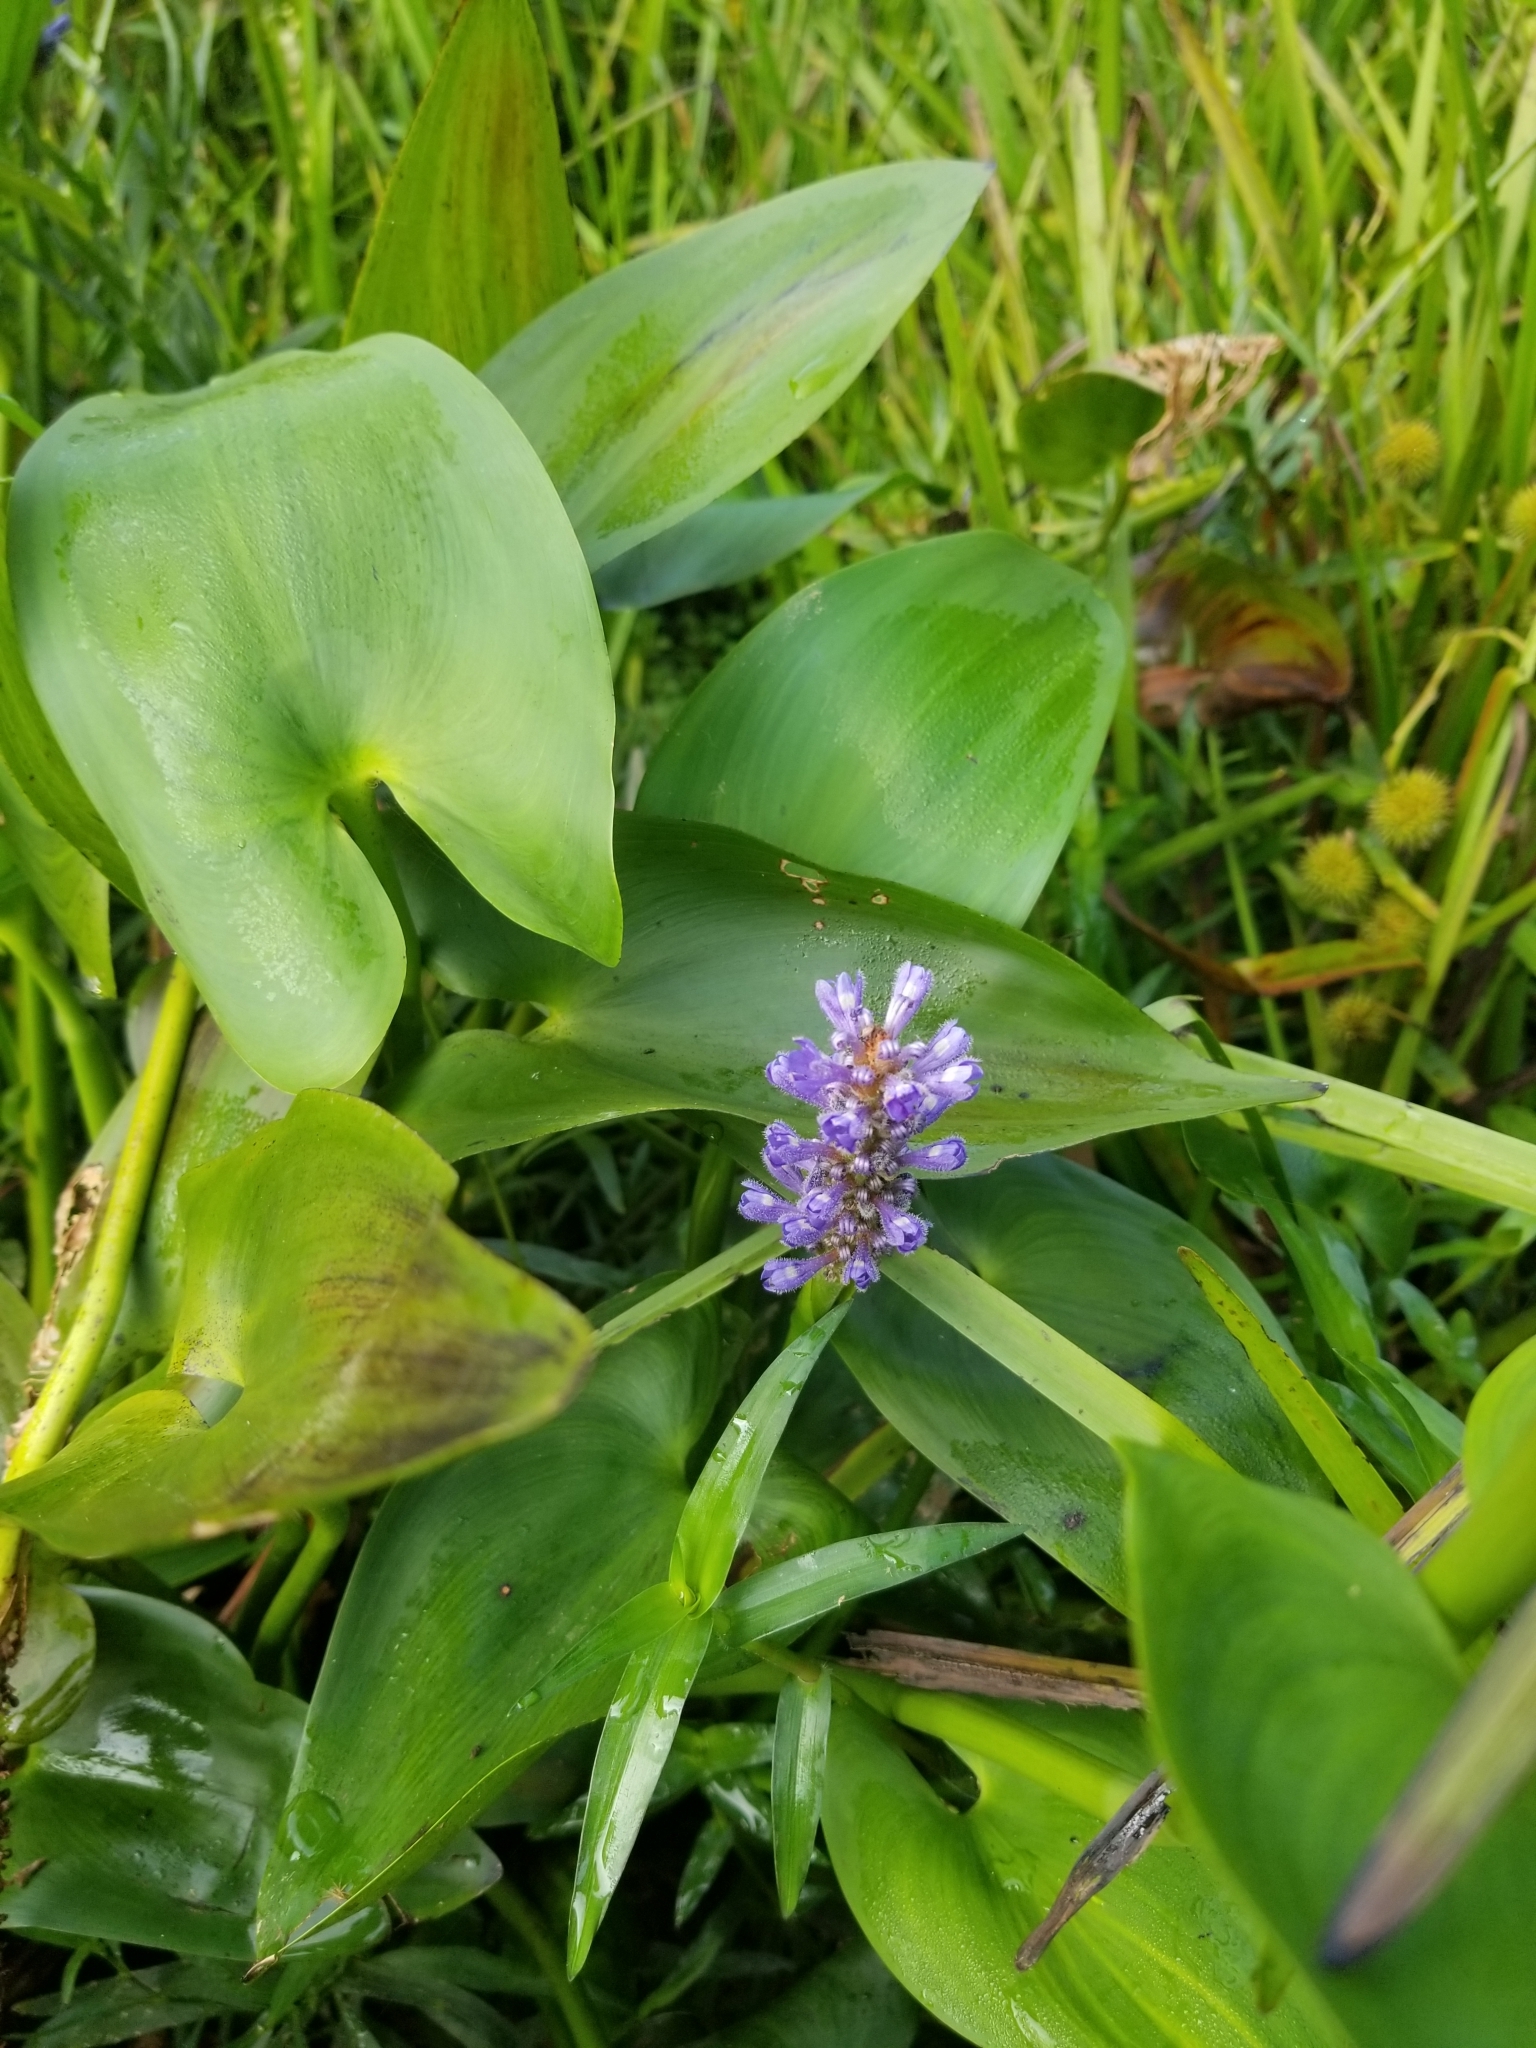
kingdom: Plantae
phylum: Tracheophyta
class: Liliopsida
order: Commelinales
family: Pontederiaceae
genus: Pontederia
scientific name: Pontederia cordata
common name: Pickerelweed
